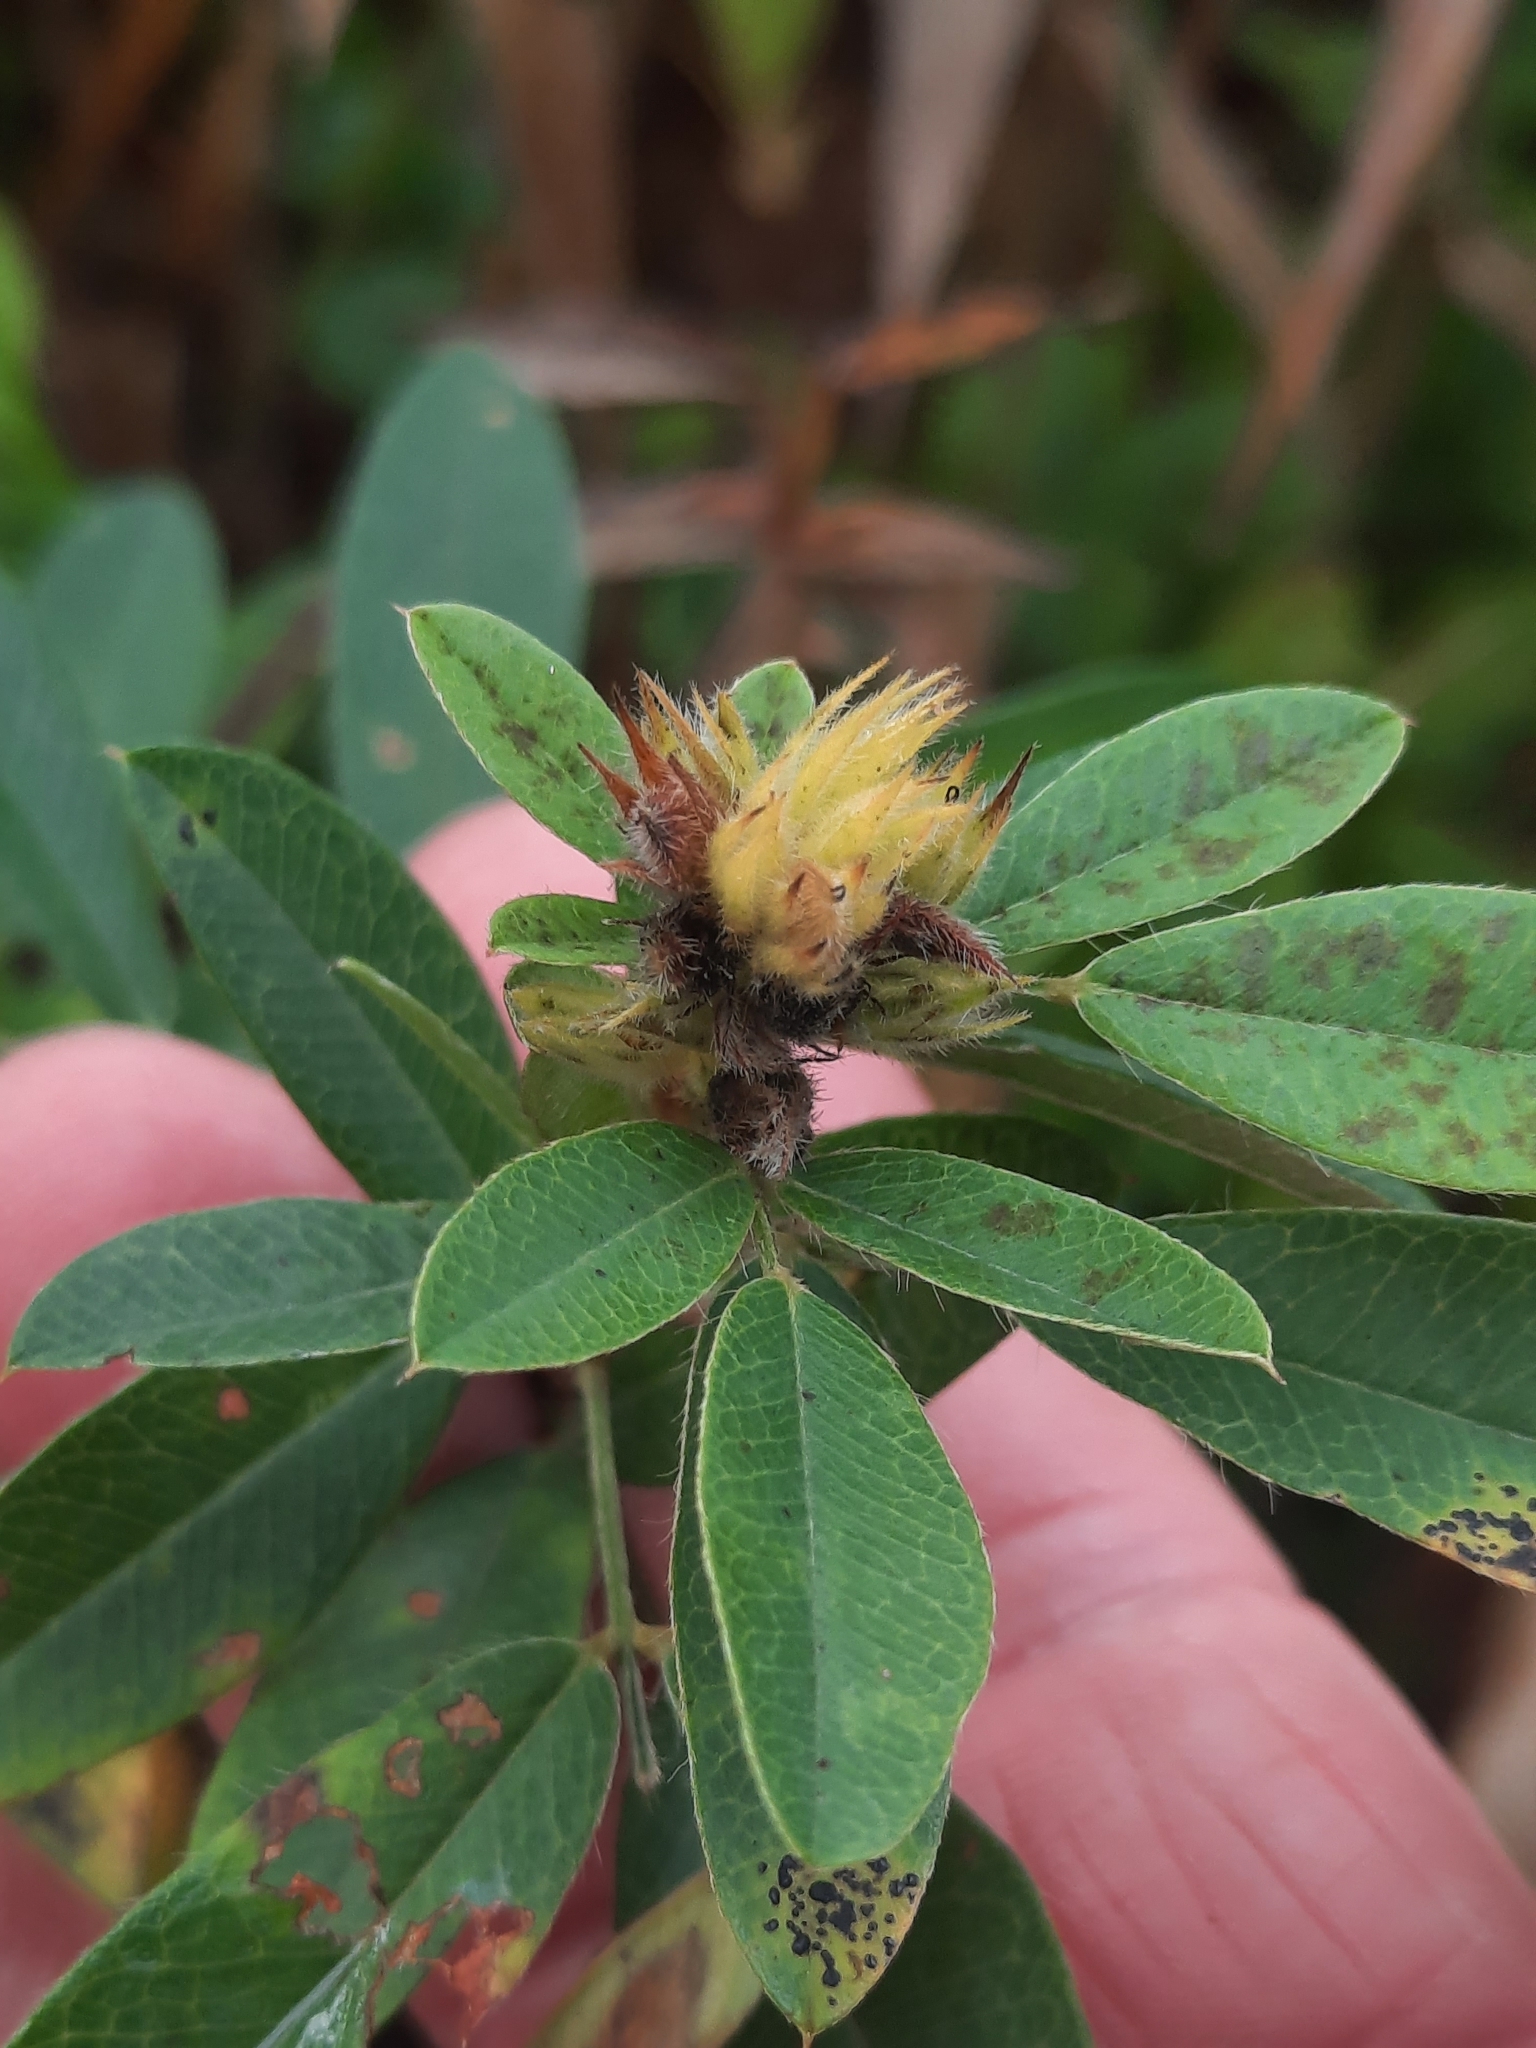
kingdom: Plantae
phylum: Tracheophyta
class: Magnoliopsida
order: Fabales
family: Fabaceae
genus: Lespedeza
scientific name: Lespedeza capitata
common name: Dusty clover
